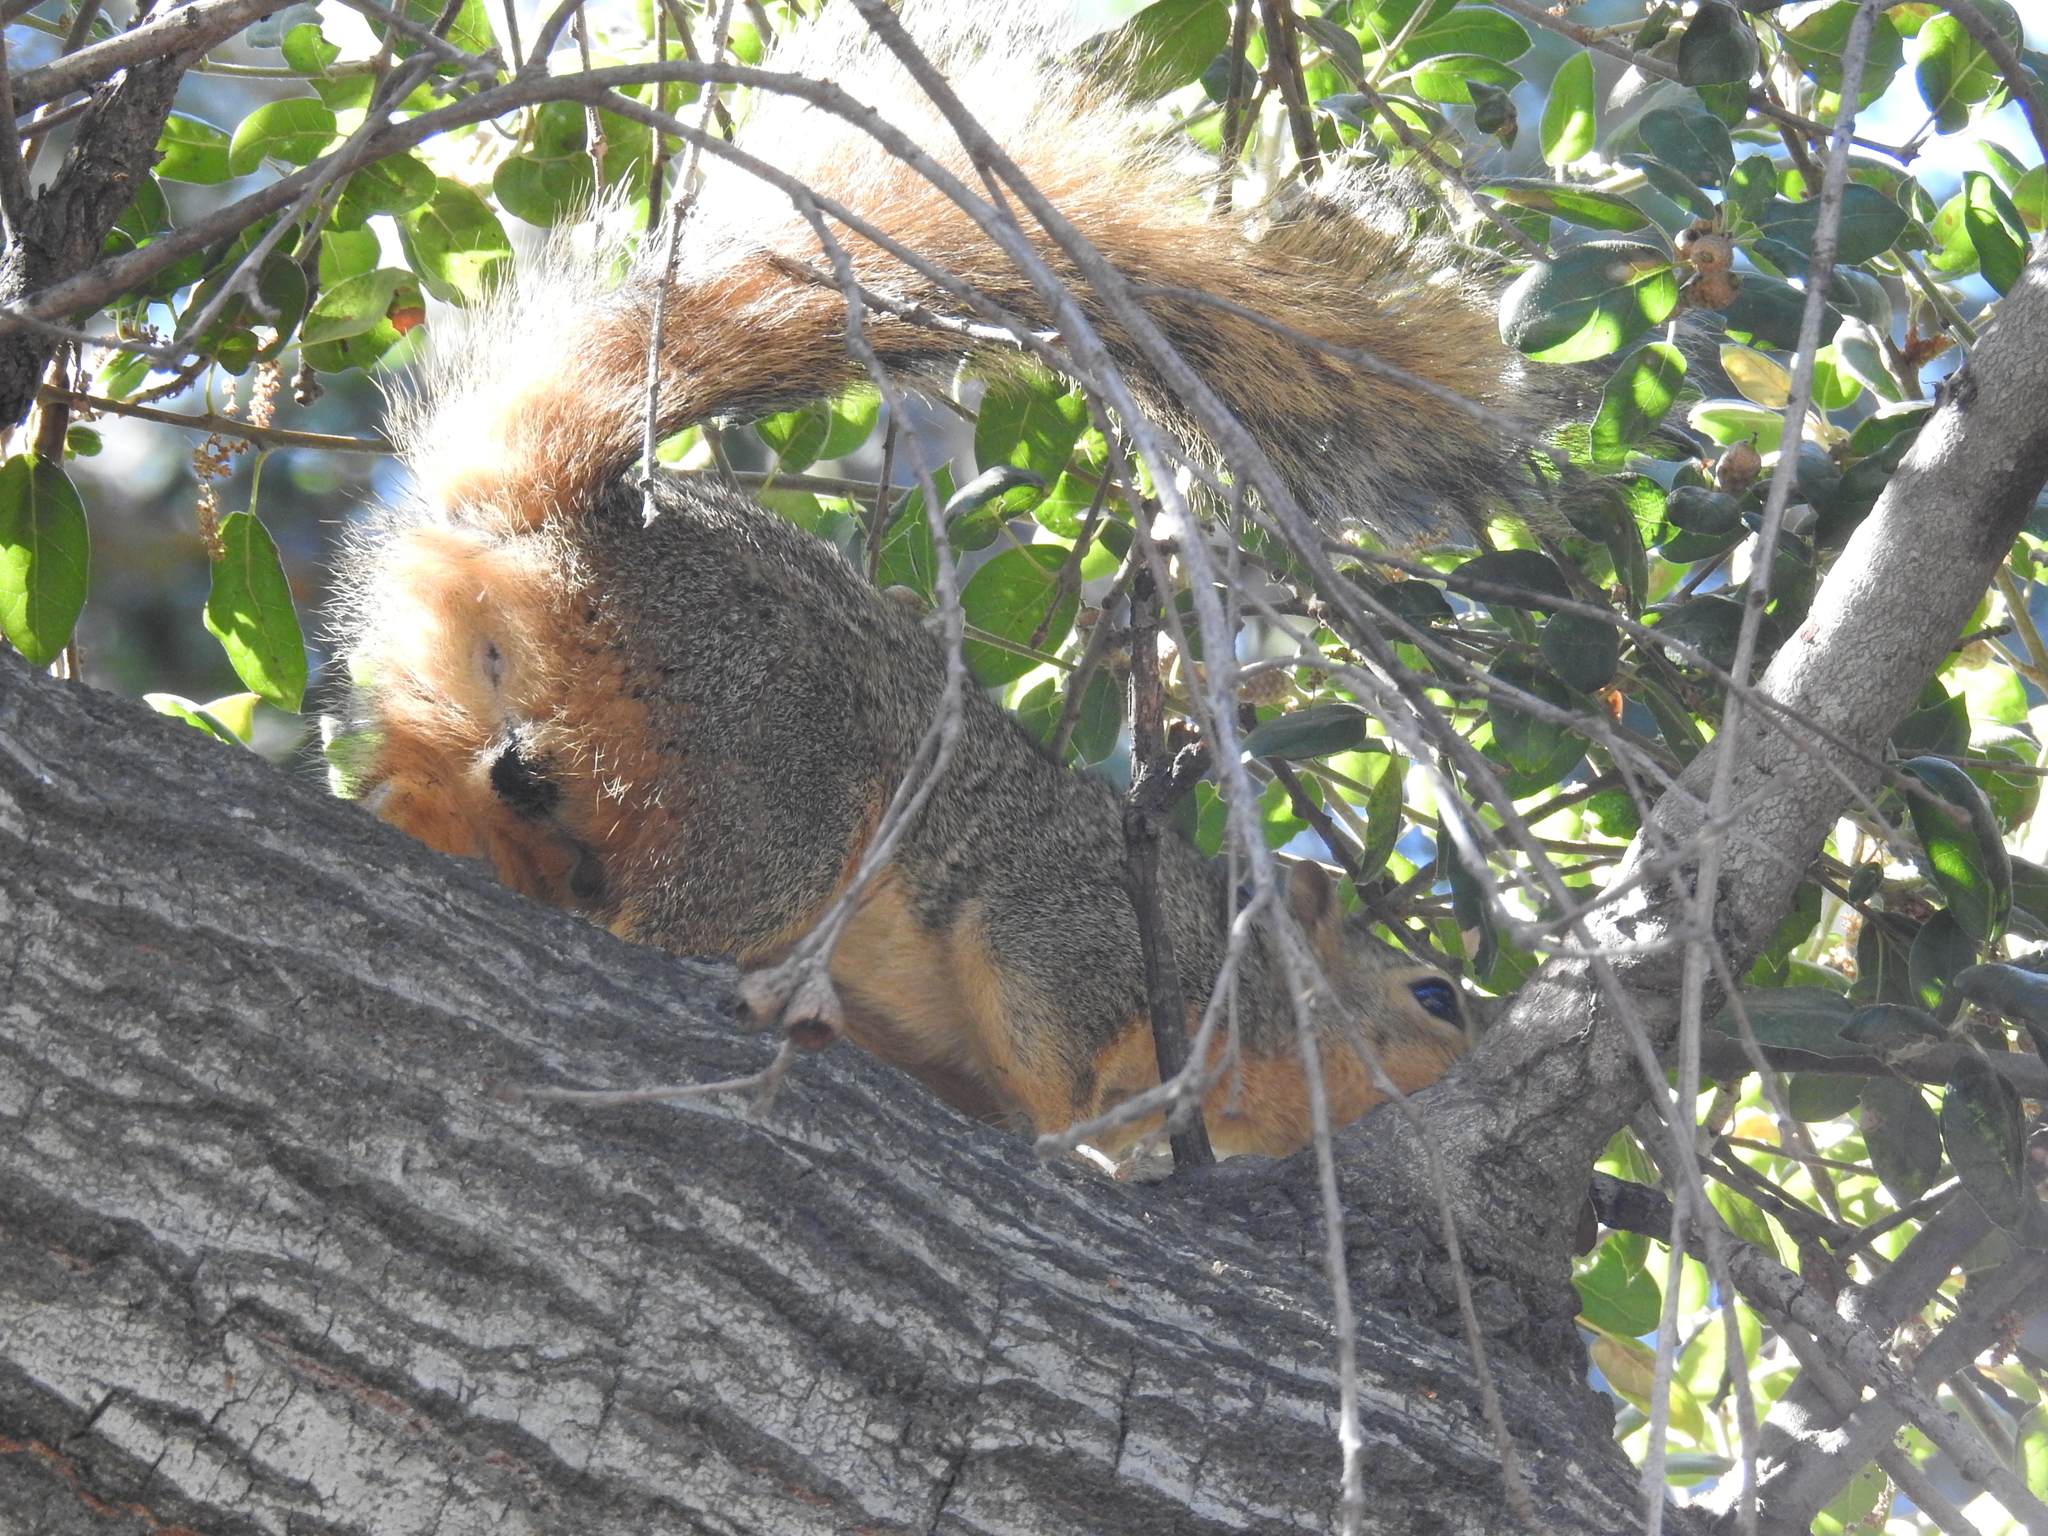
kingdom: Animalia
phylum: Chordata
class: Mammalia
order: Rodentia
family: Sciuridae
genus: Sciurus
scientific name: Sciurus niger
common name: Fox squirrel
